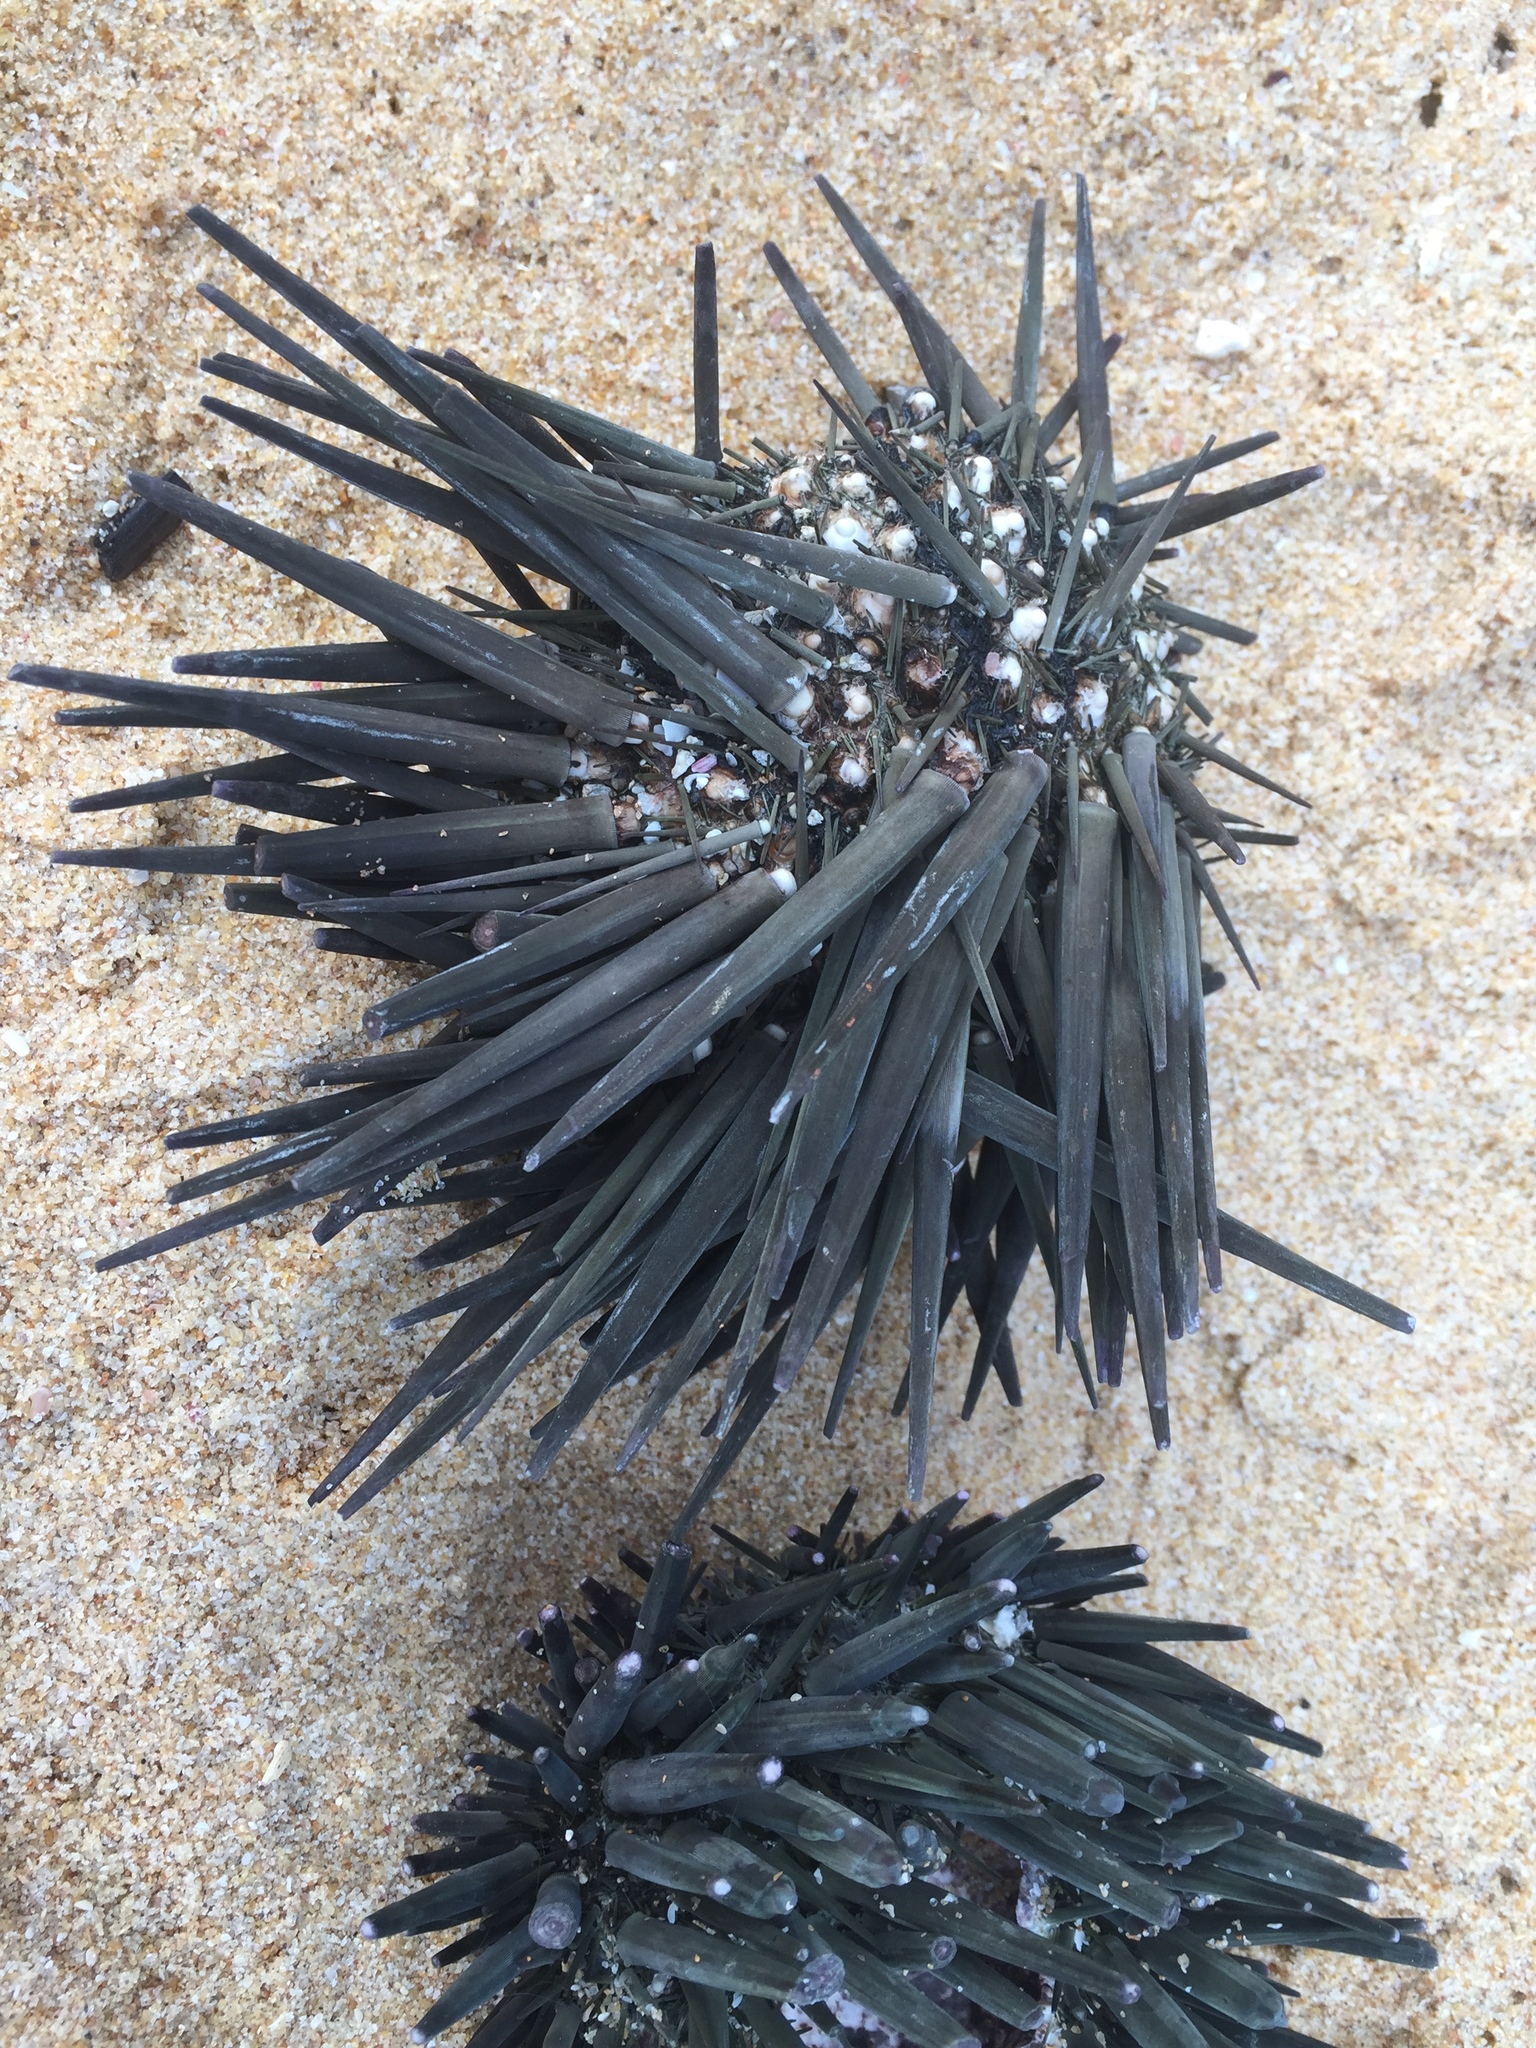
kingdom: Animalia
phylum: Echinodermata
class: Echinoidea
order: Stomopneustoida
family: Stomopneustidae
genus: Stomopneustes
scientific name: Stomopneustes variolaris
